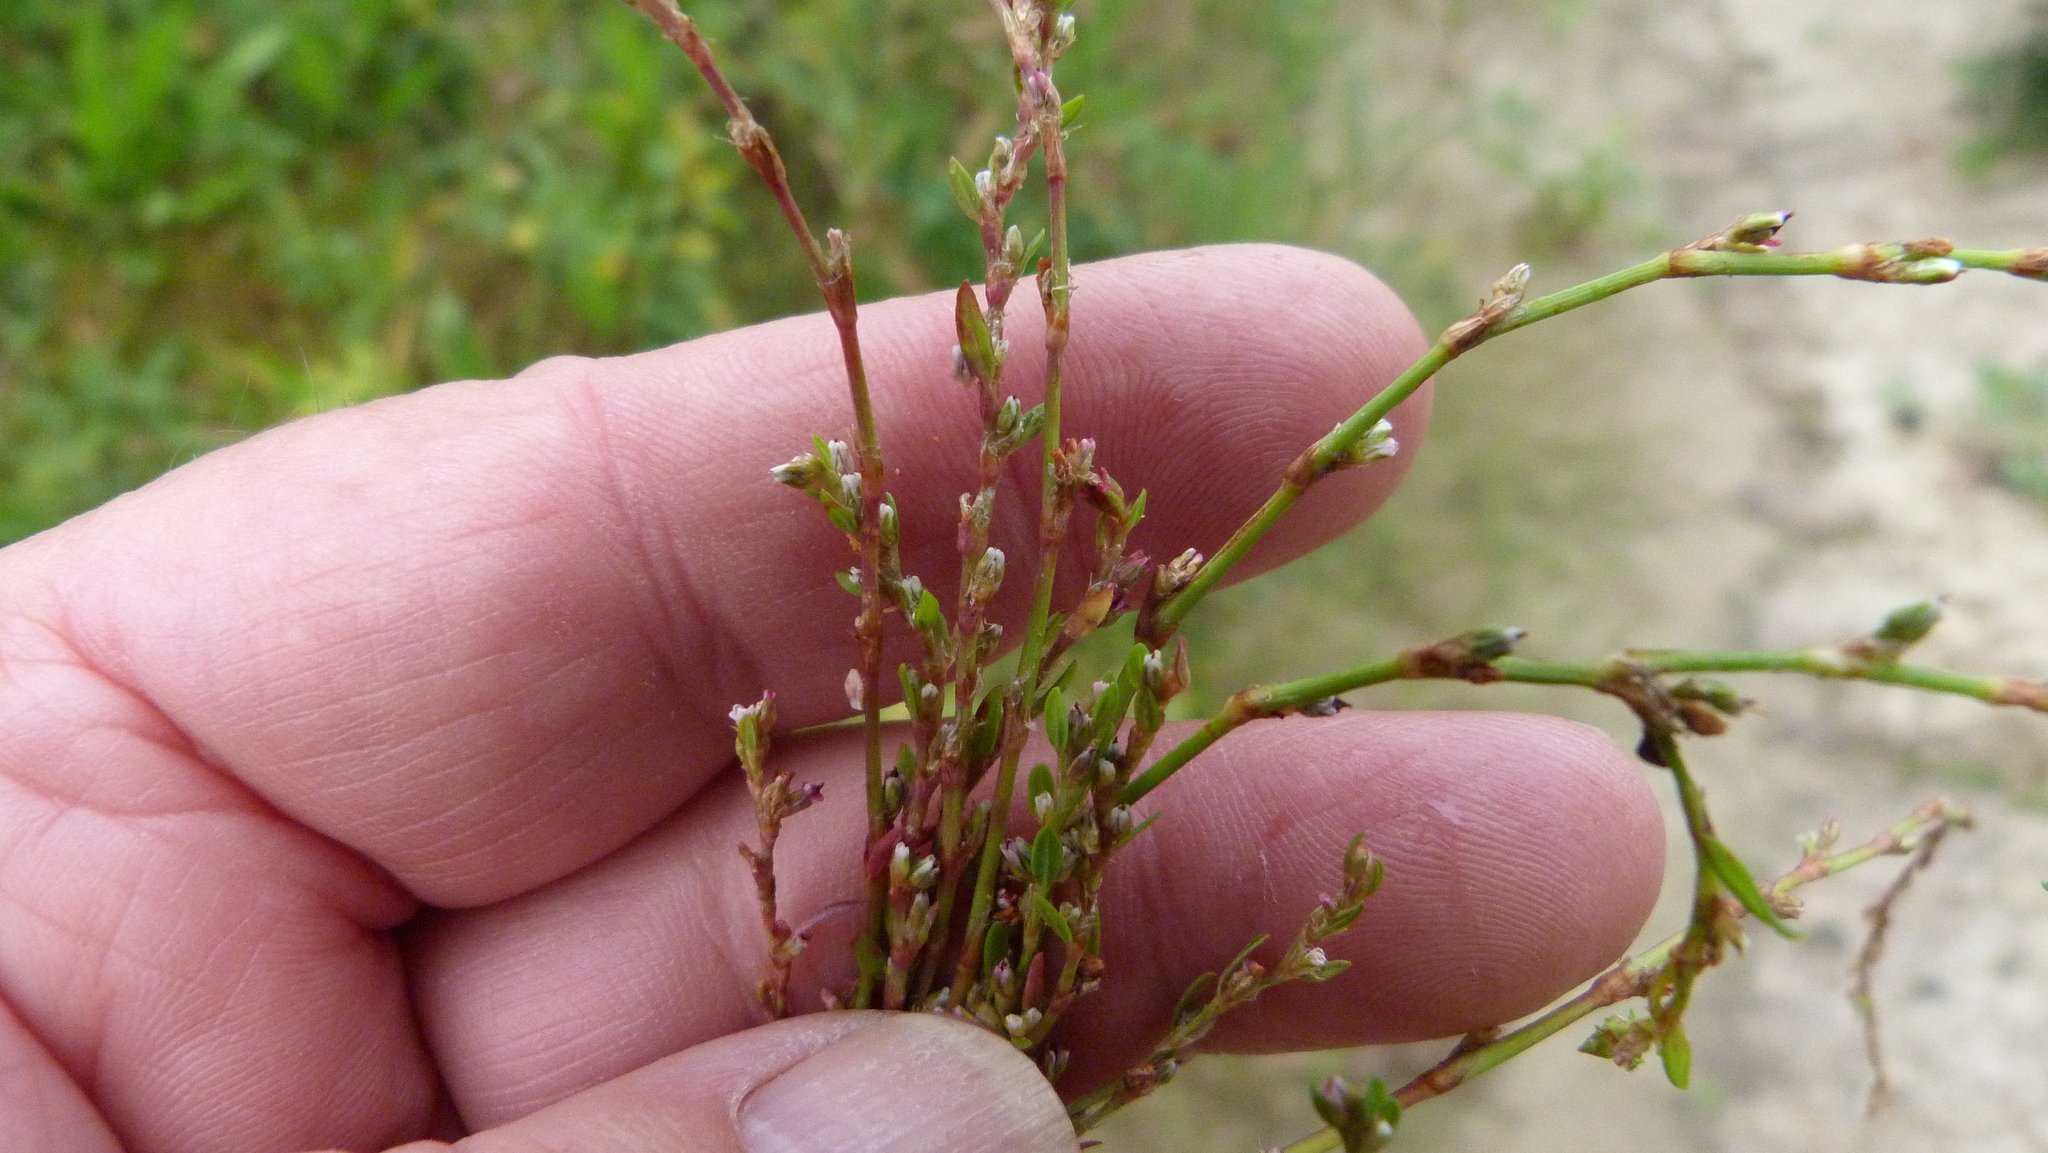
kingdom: Plantae
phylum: Tracheophyta
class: Magnoliopsida
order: Caryophyllales
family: Polygonaceae
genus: Polygonum
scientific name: Polygonum aviculare
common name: Prostrate knotweed
